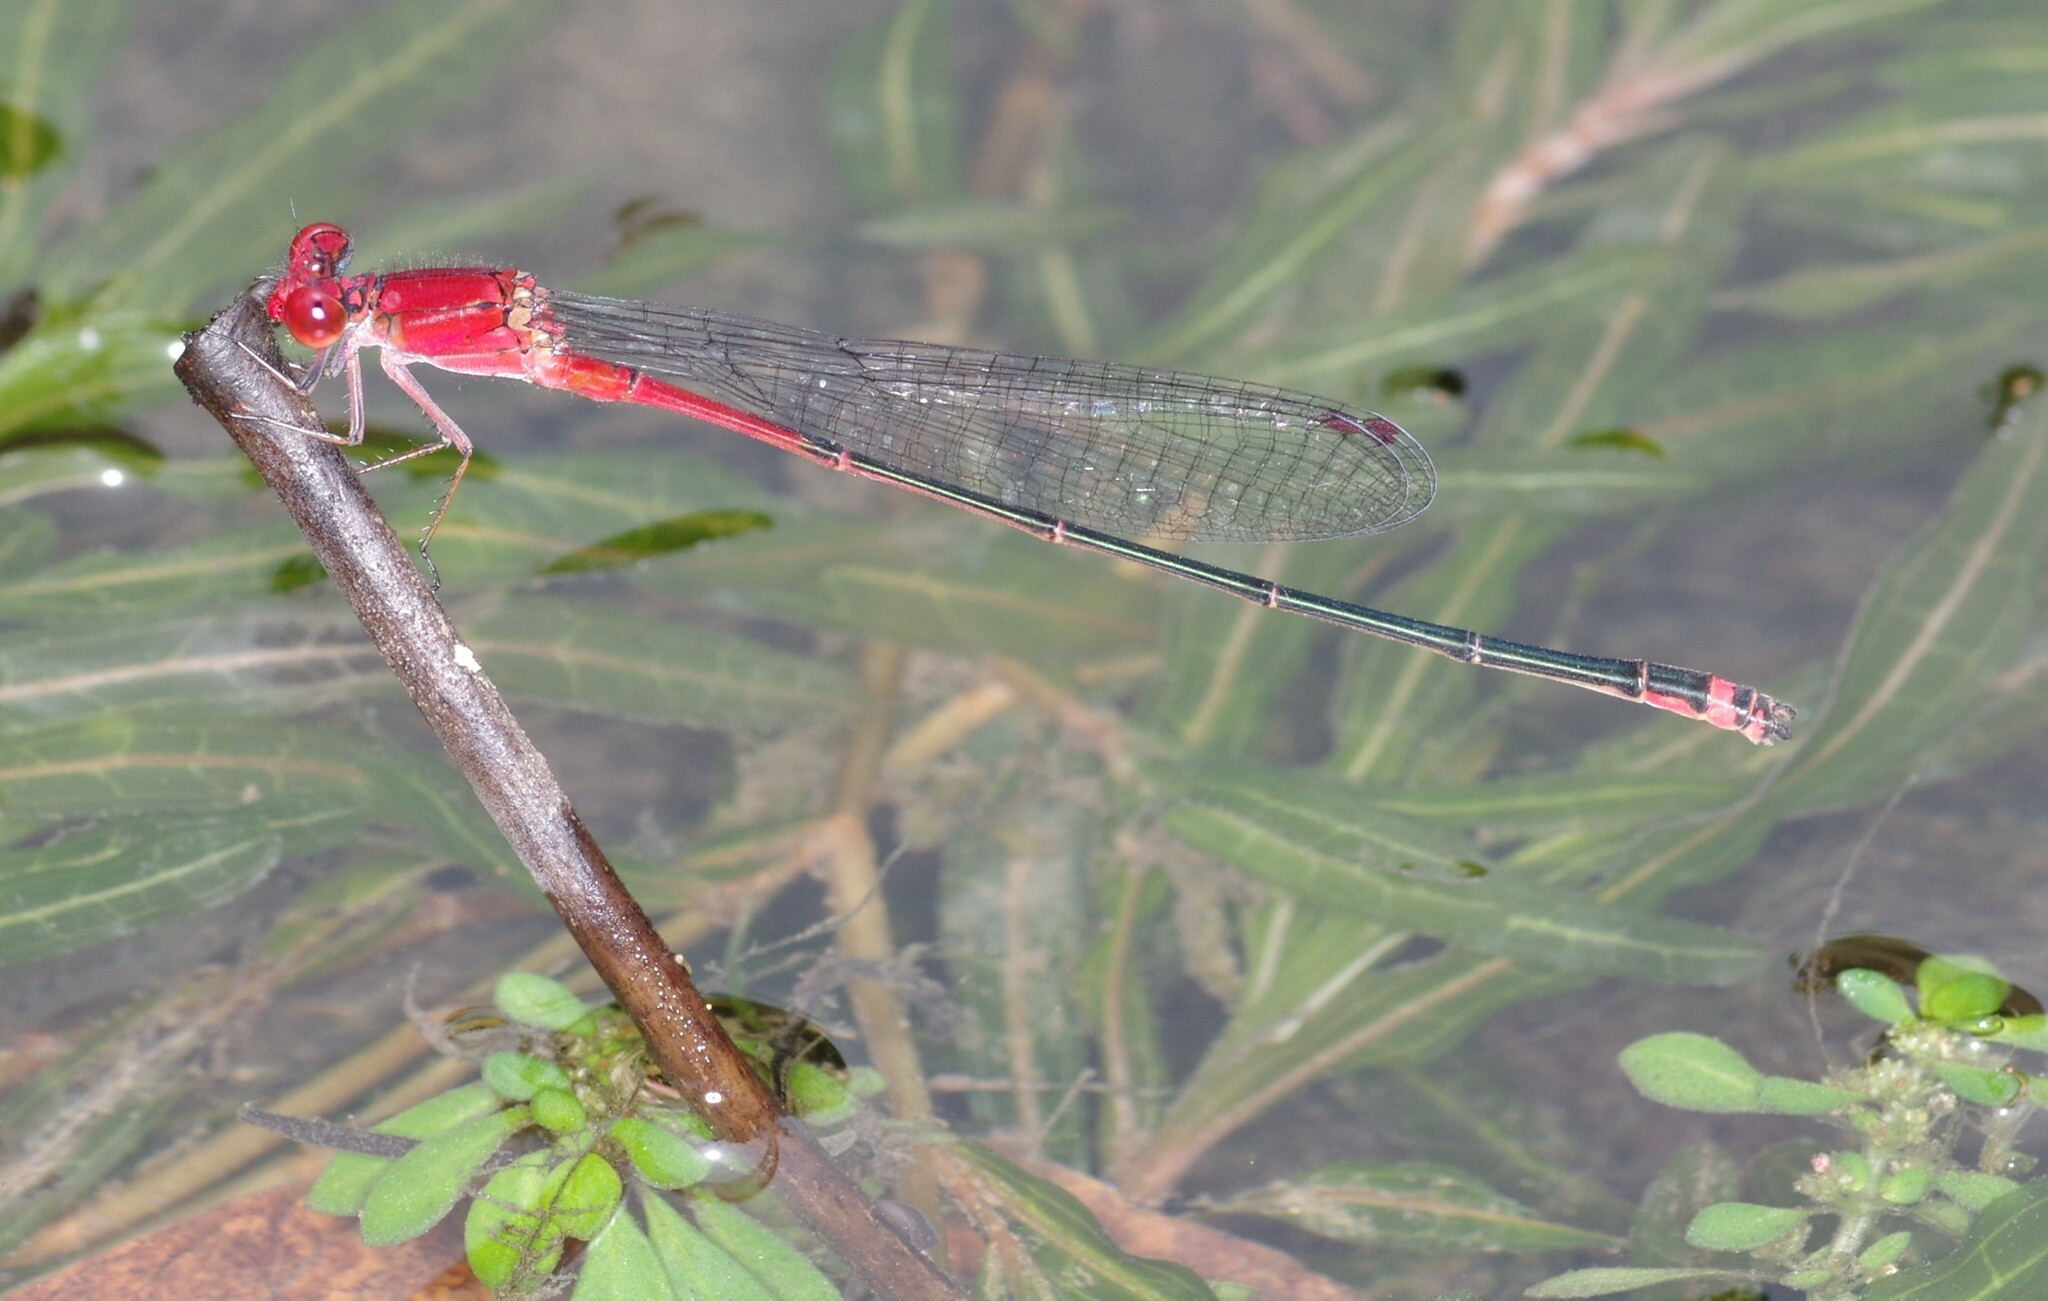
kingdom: Animalia
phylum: Arthropoda
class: Insecta
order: Odonata
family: Coenagrionidae
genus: Pseudagrion
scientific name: Pseudagrion pilidorsum
